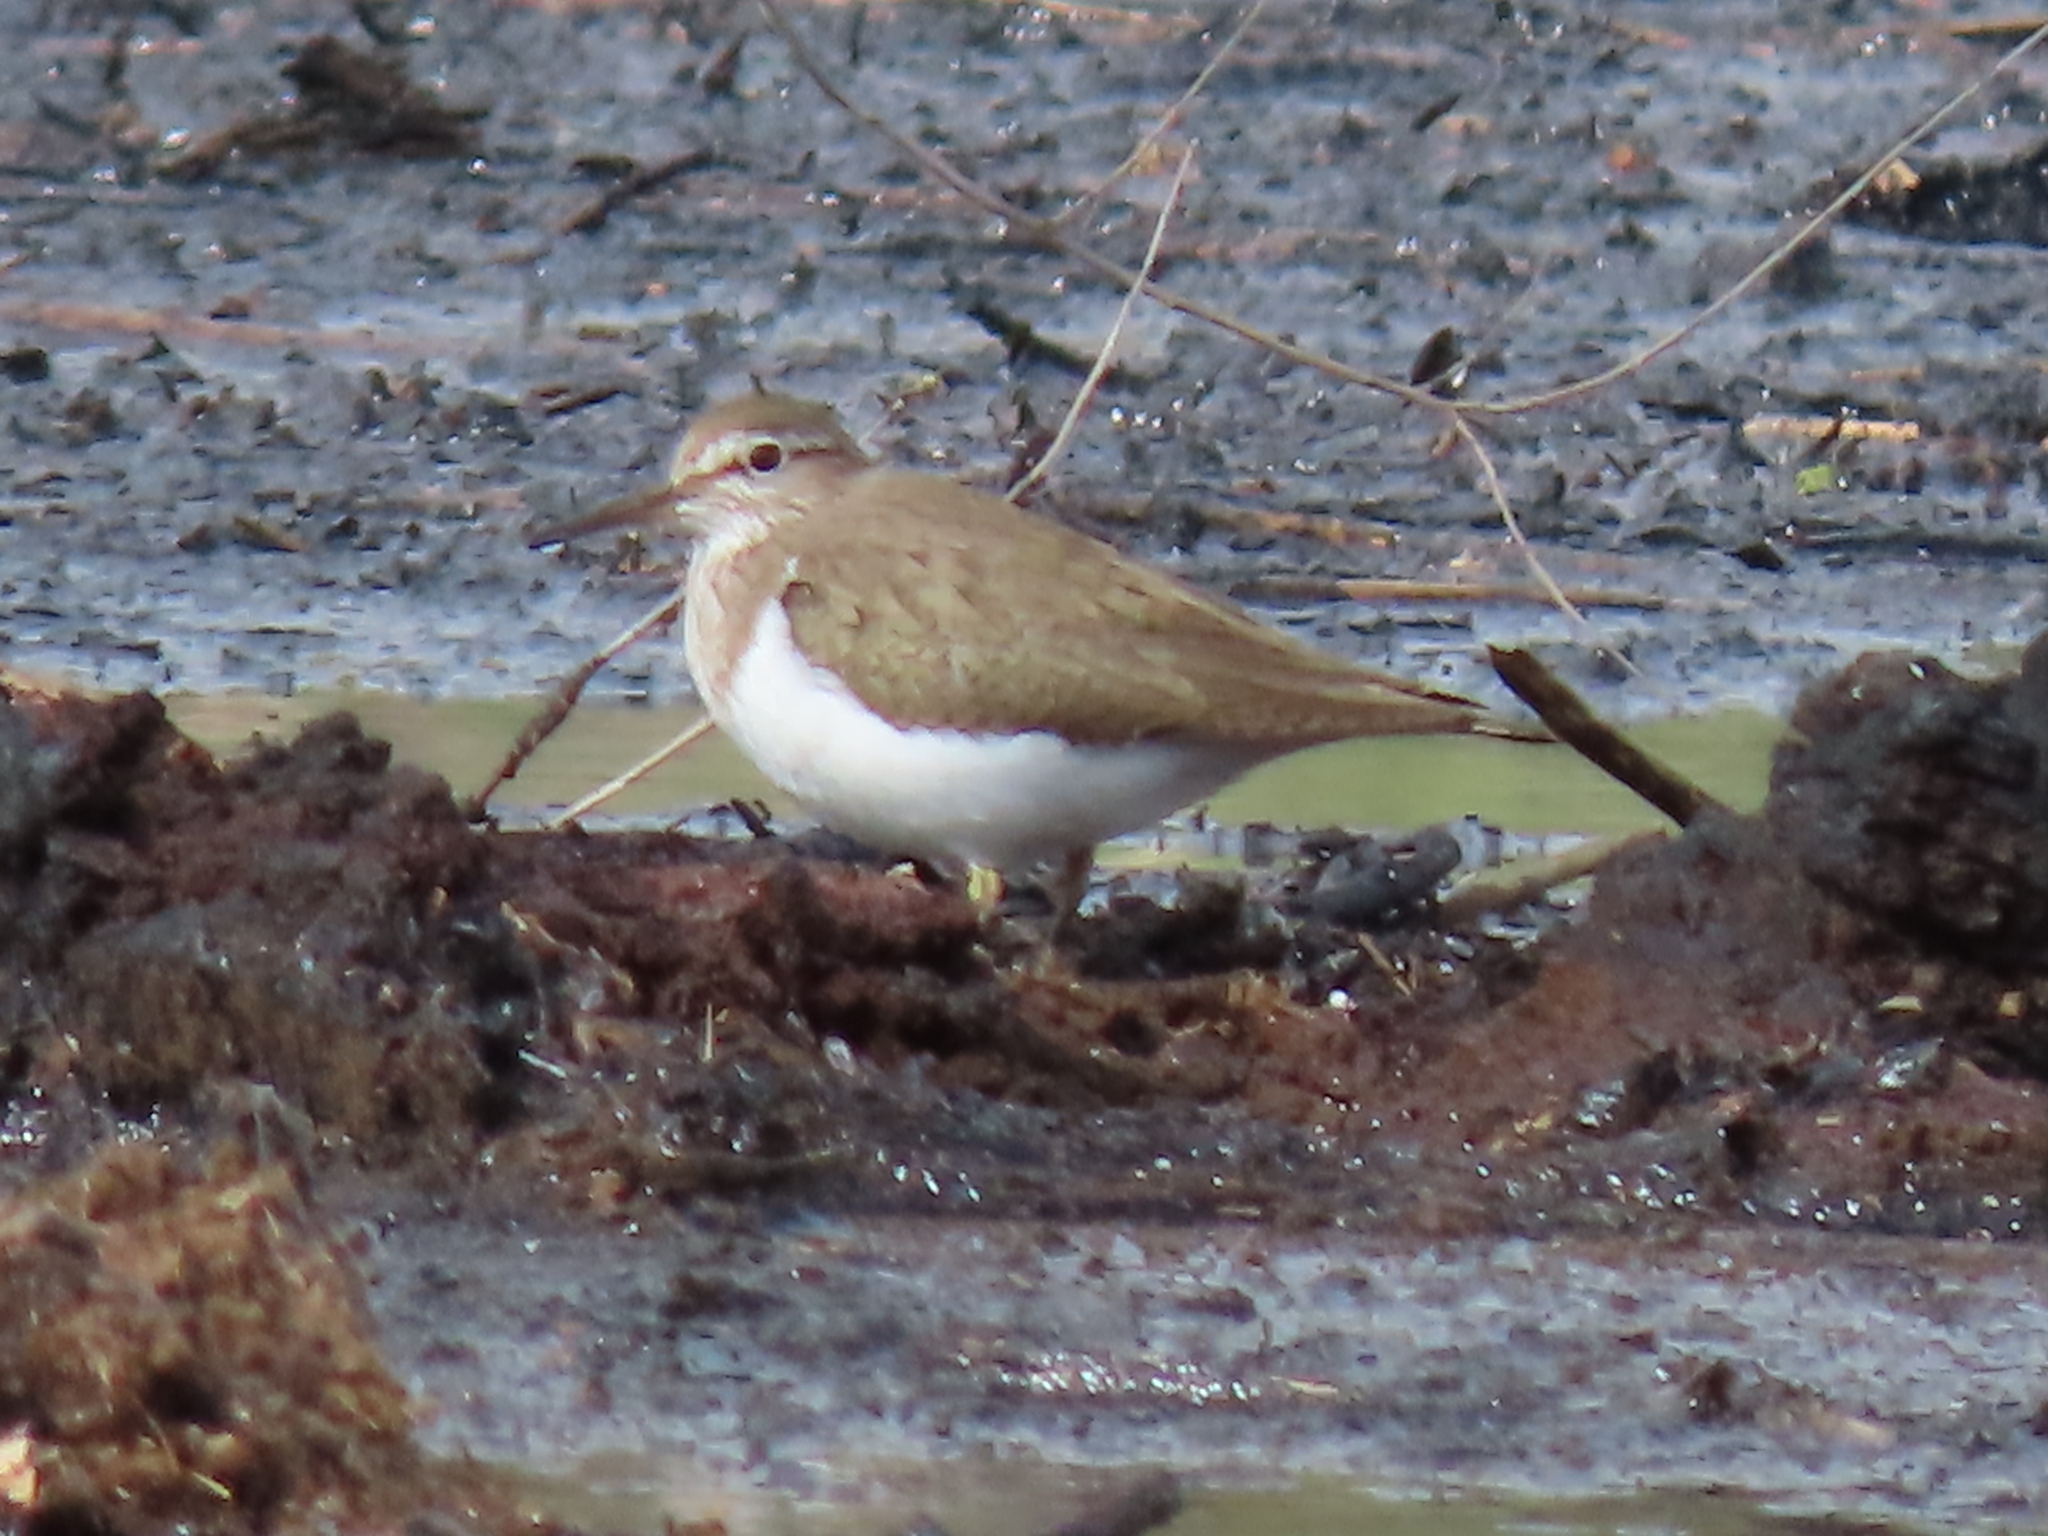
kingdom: Animalia
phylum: Chordata
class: Aves
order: Charadriiformes
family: Scolopacidae
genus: Actitis
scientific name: Actitis hypoleucos
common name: Common sandpiper
